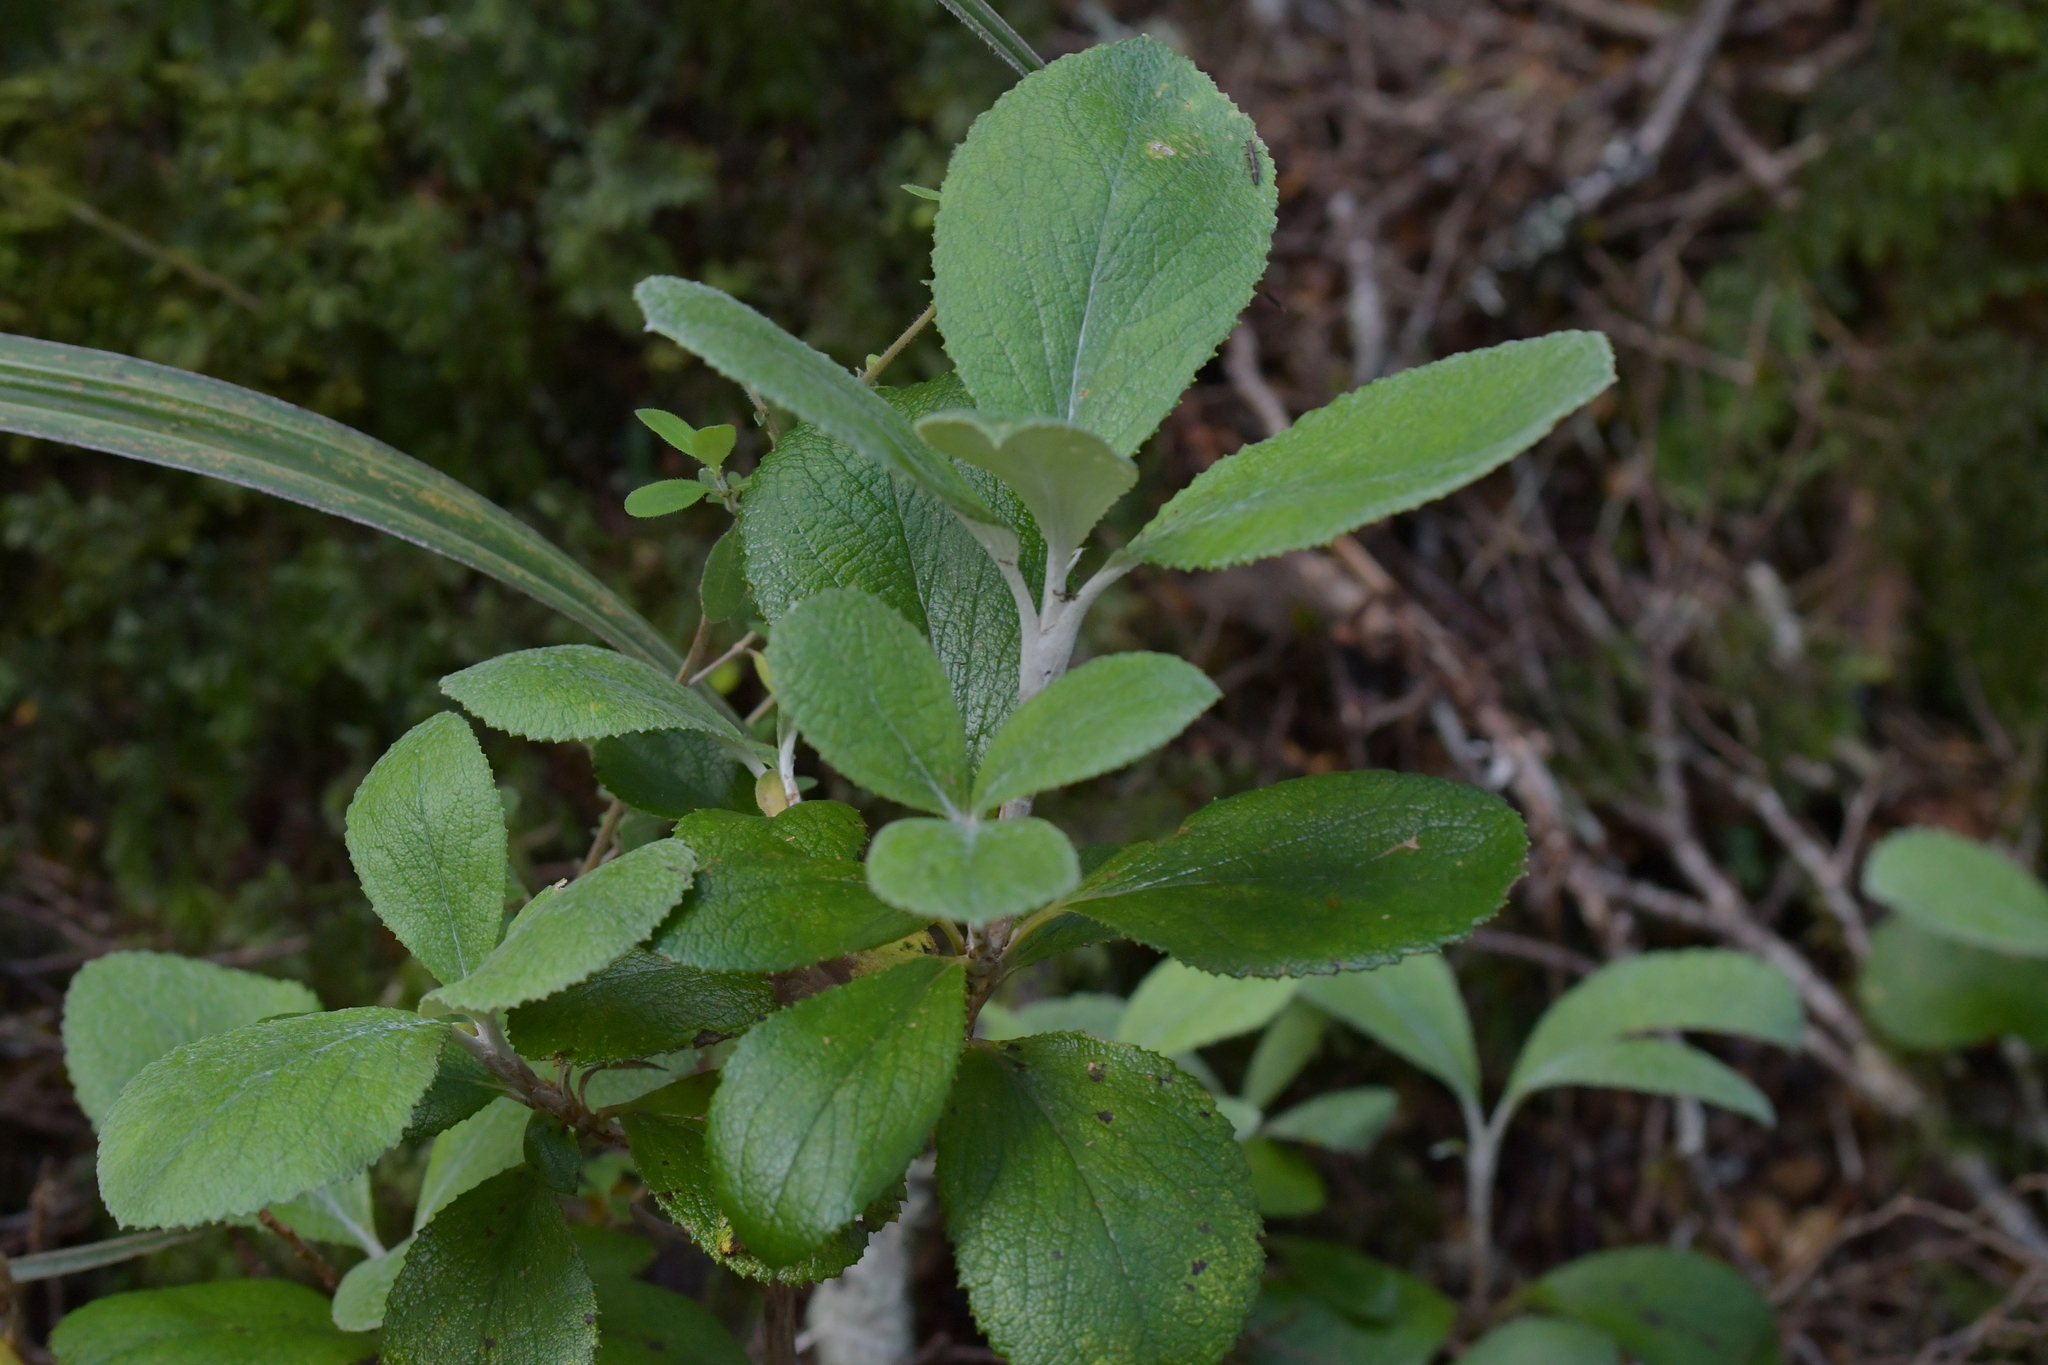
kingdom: Plantae
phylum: Tracheophyta
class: Magnoliopsida
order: Asterales
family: Asteraceae
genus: Macrolearia
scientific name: Macrolearia colensoi
